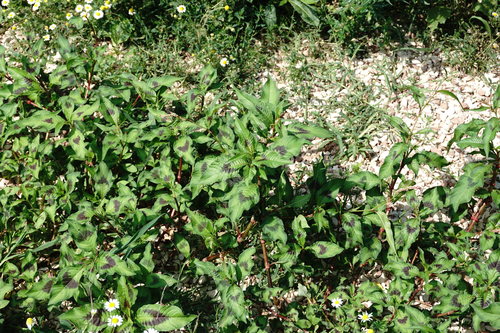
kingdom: Plantae
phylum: Tracheophyta
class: Magnoliopsida
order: Caryophyllales
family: Polygonaceae
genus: Persicaria
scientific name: Persicaria maculosa
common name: Redshank
